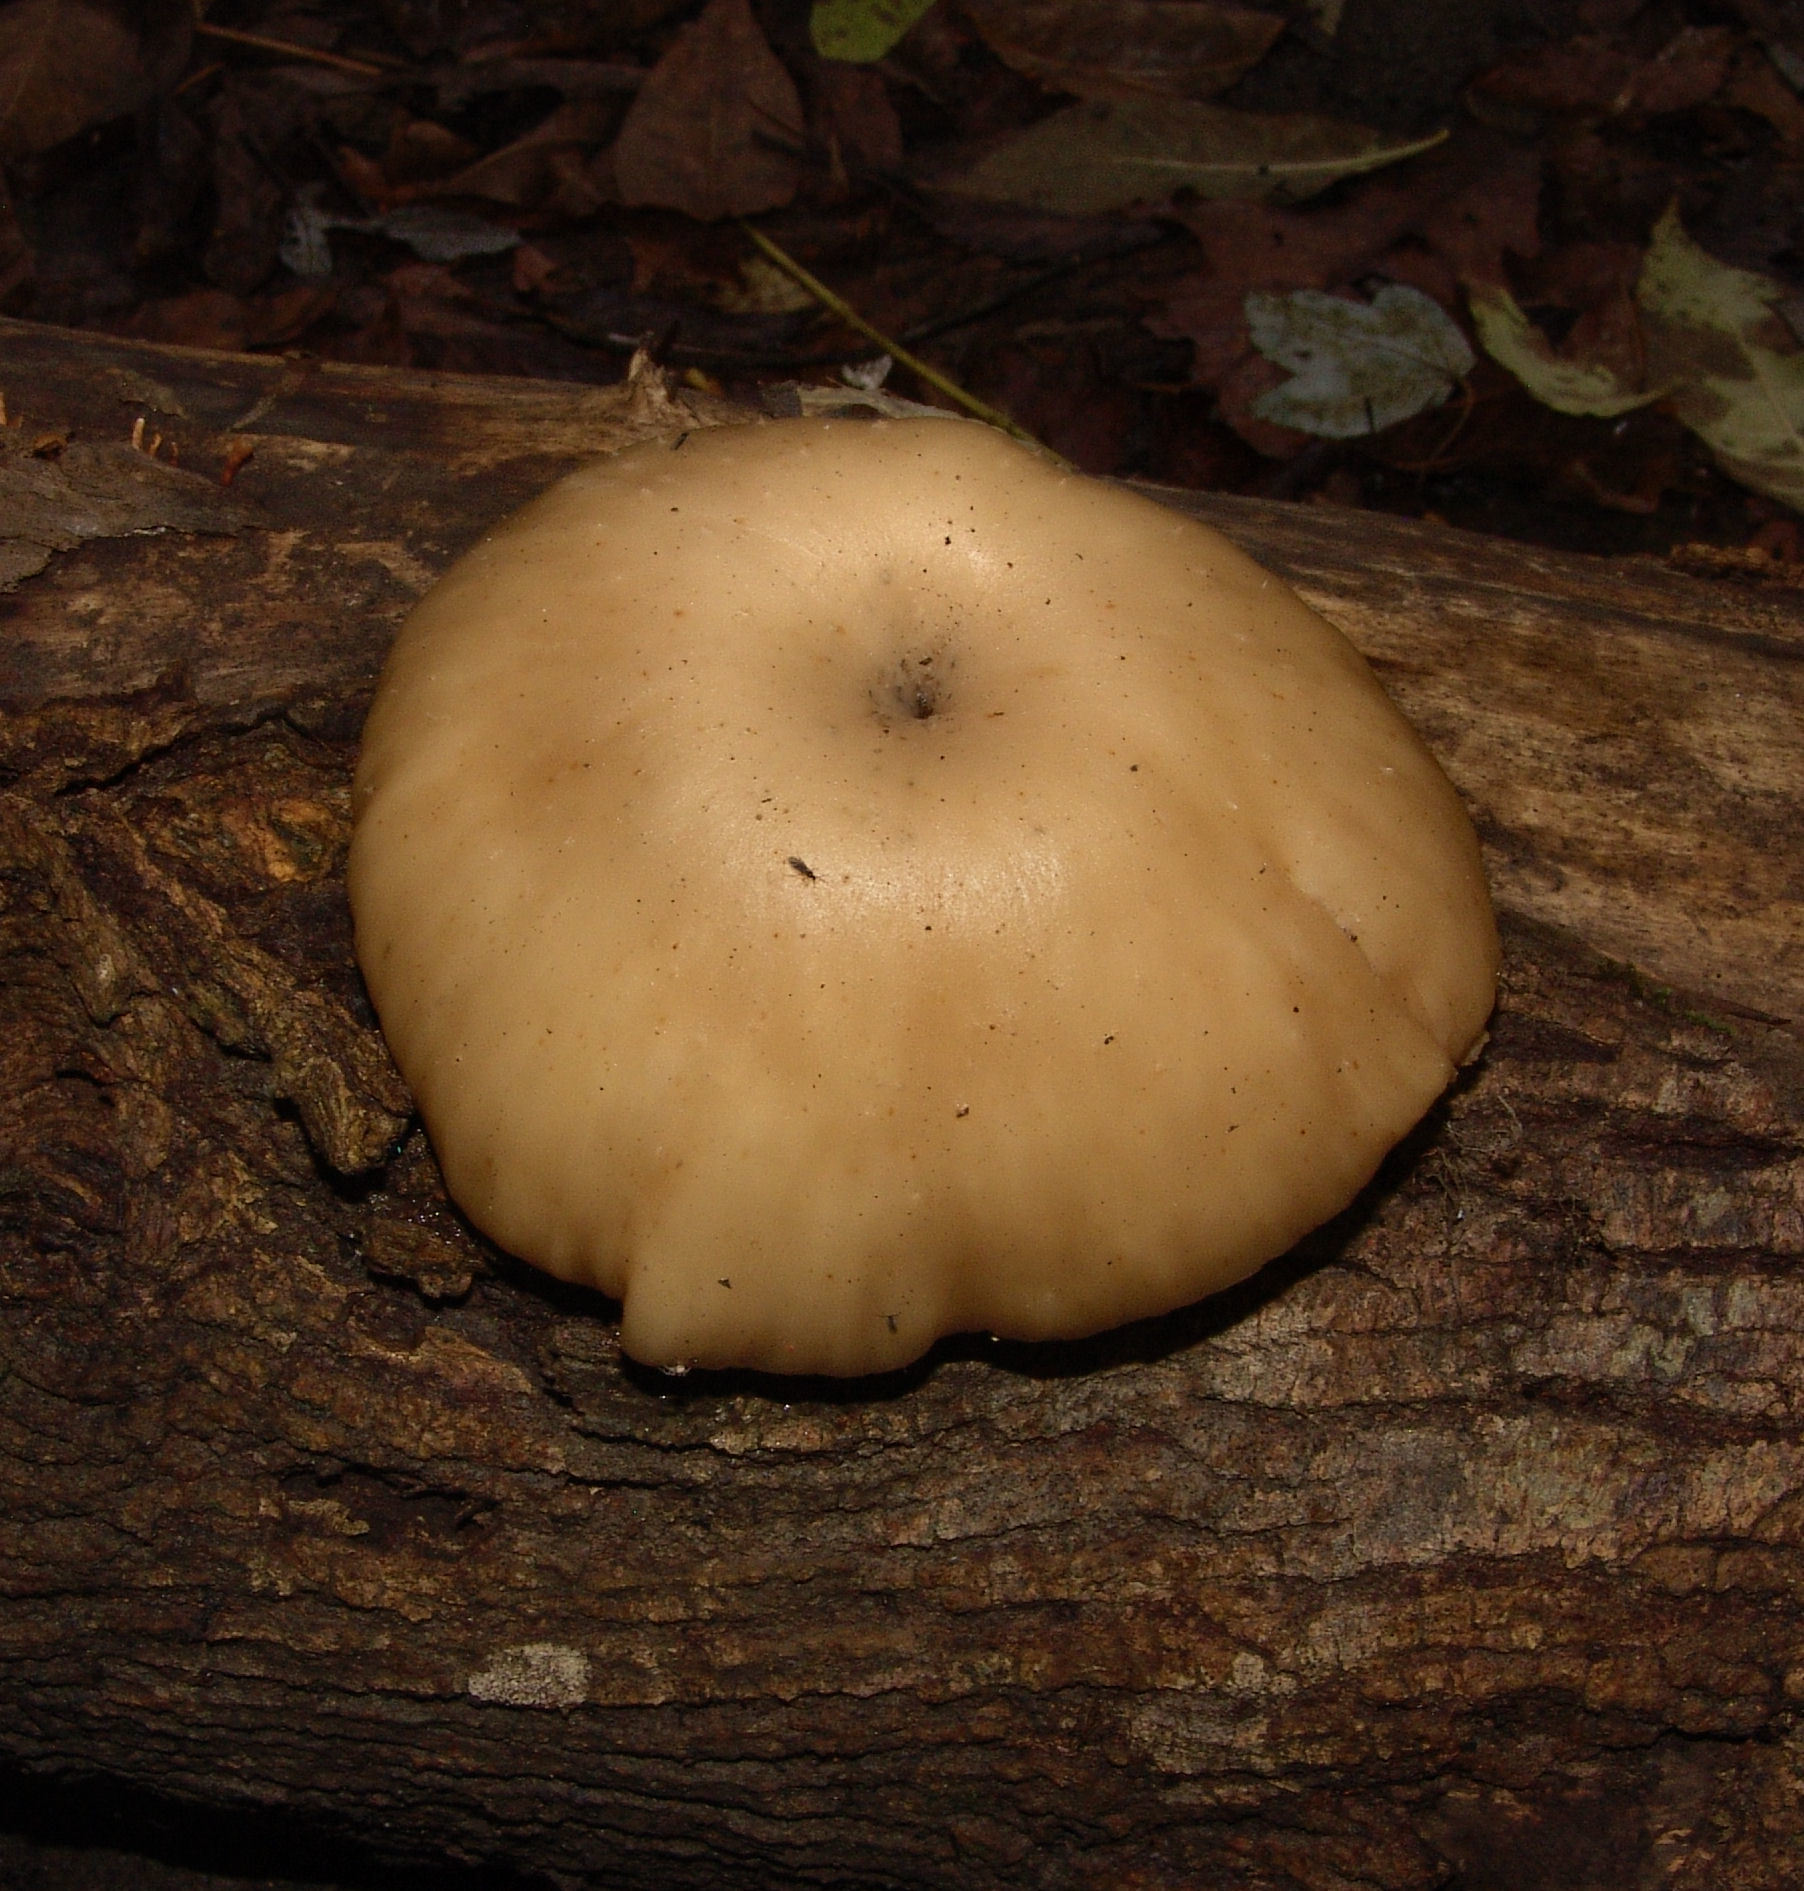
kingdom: Fungi
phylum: Basidiomycota
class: Agaricomycetes
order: Agaricales
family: Pleurotaceae
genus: Pleurotus
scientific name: Pleurotus ostreatus
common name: Oyster mushroom
